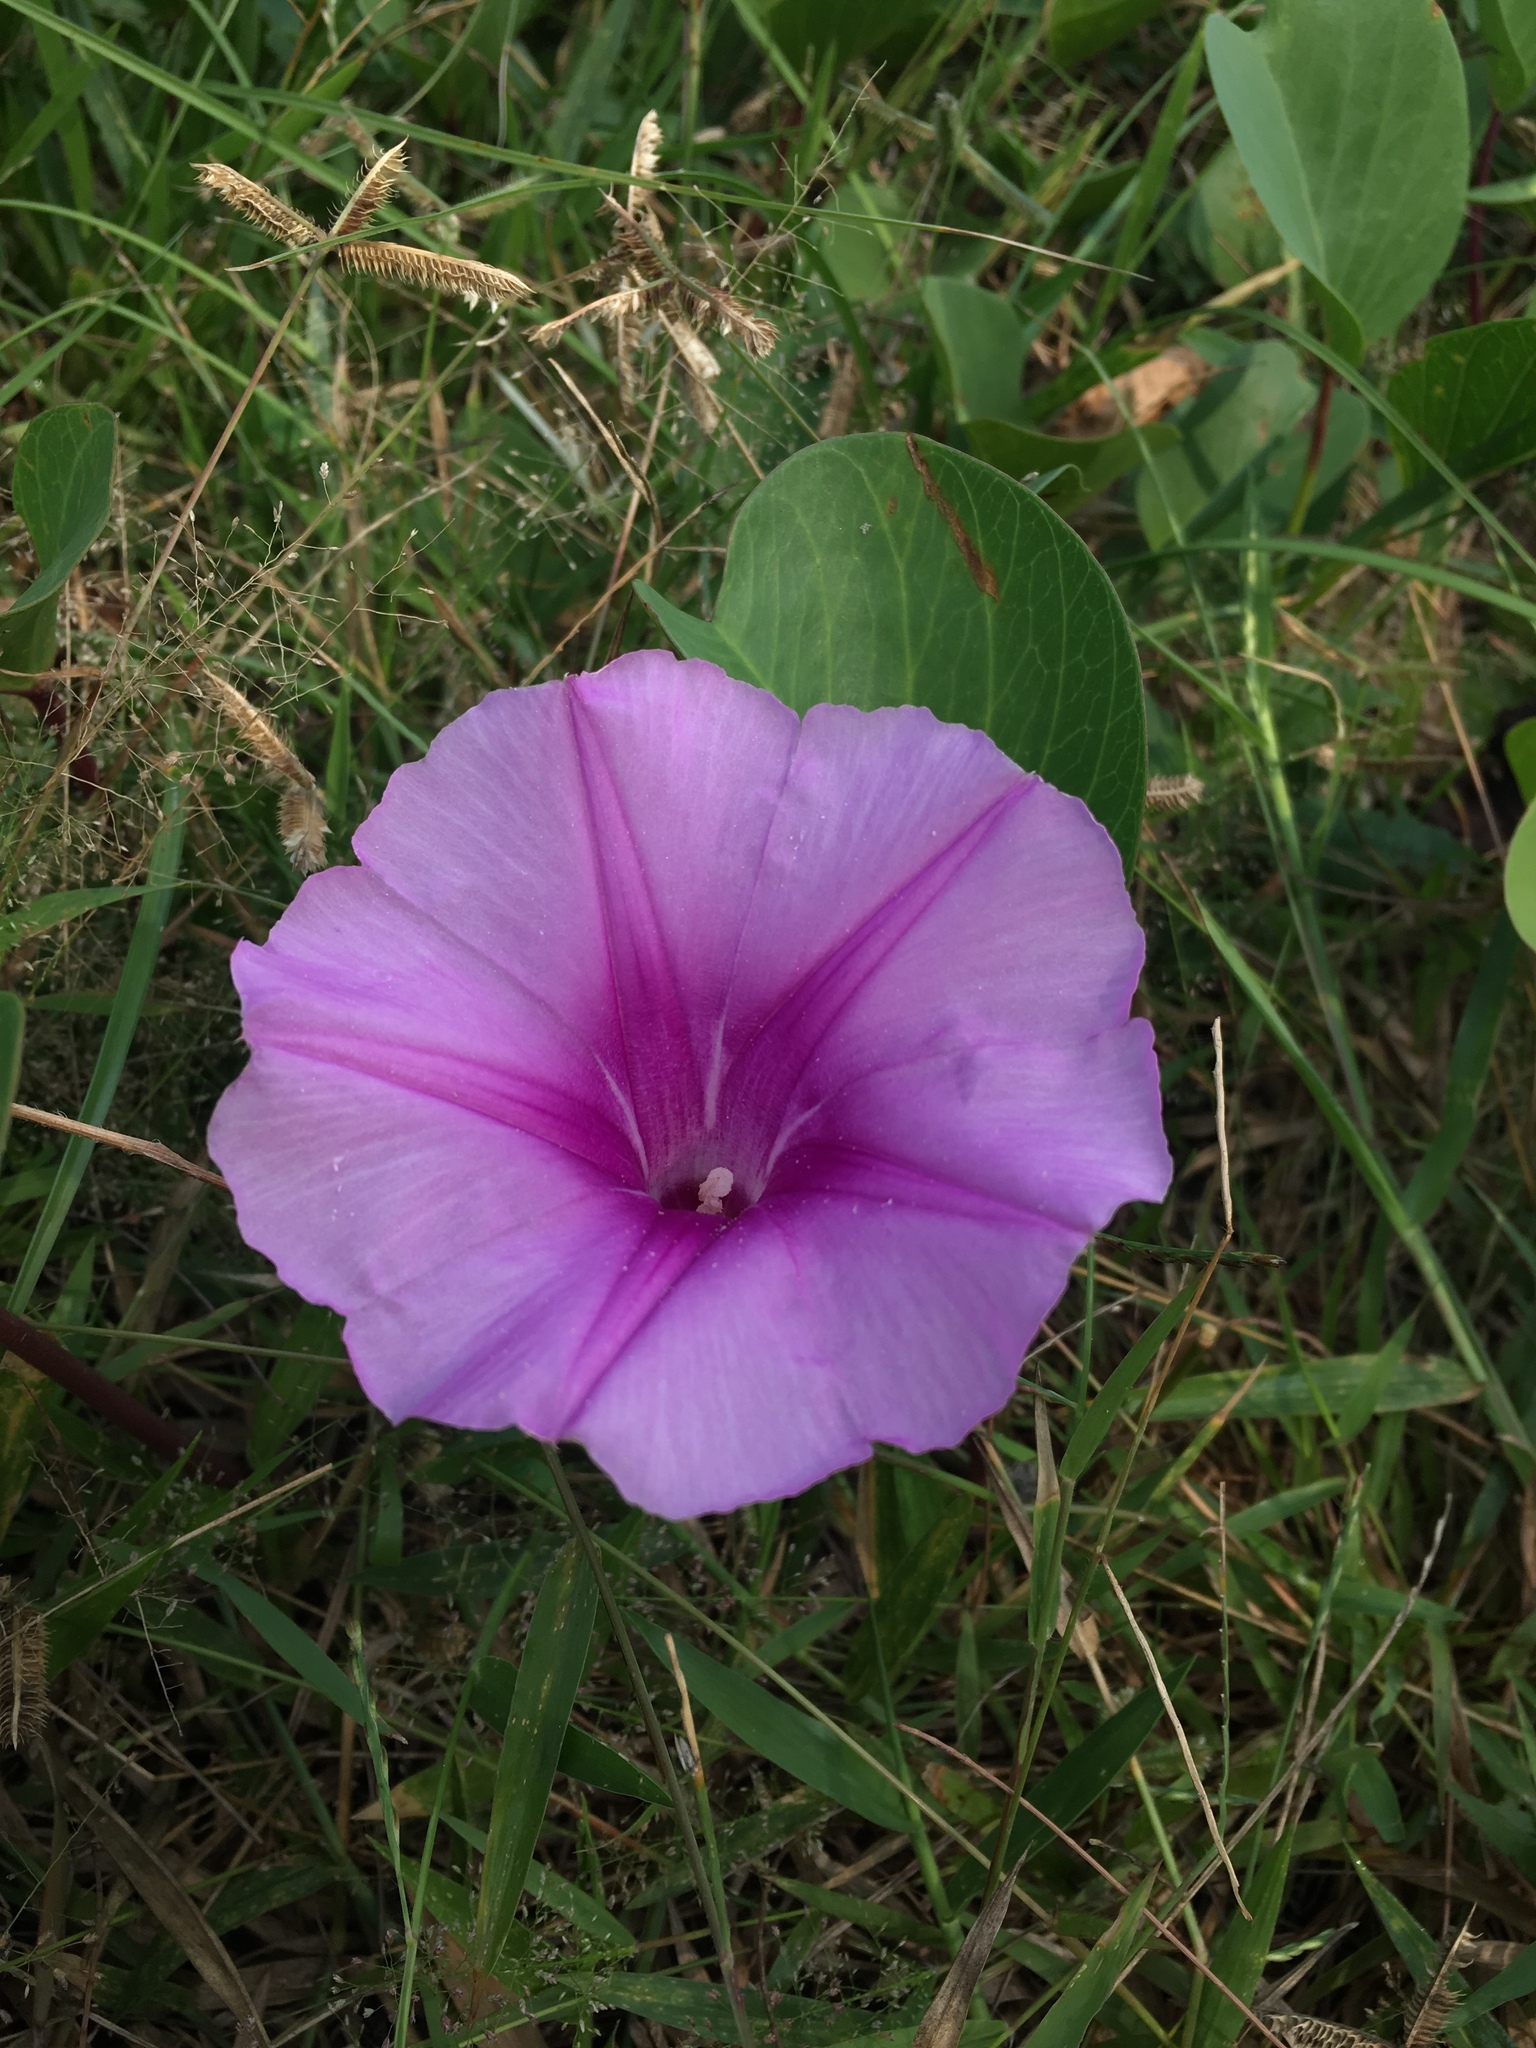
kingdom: Plantae
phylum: Tracheophyta
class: Magnoliopsida
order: Solanales
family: Convolvulaceae
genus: Ipomoea
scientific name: Ipomoea pes-caprae
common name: Beach morning glory
